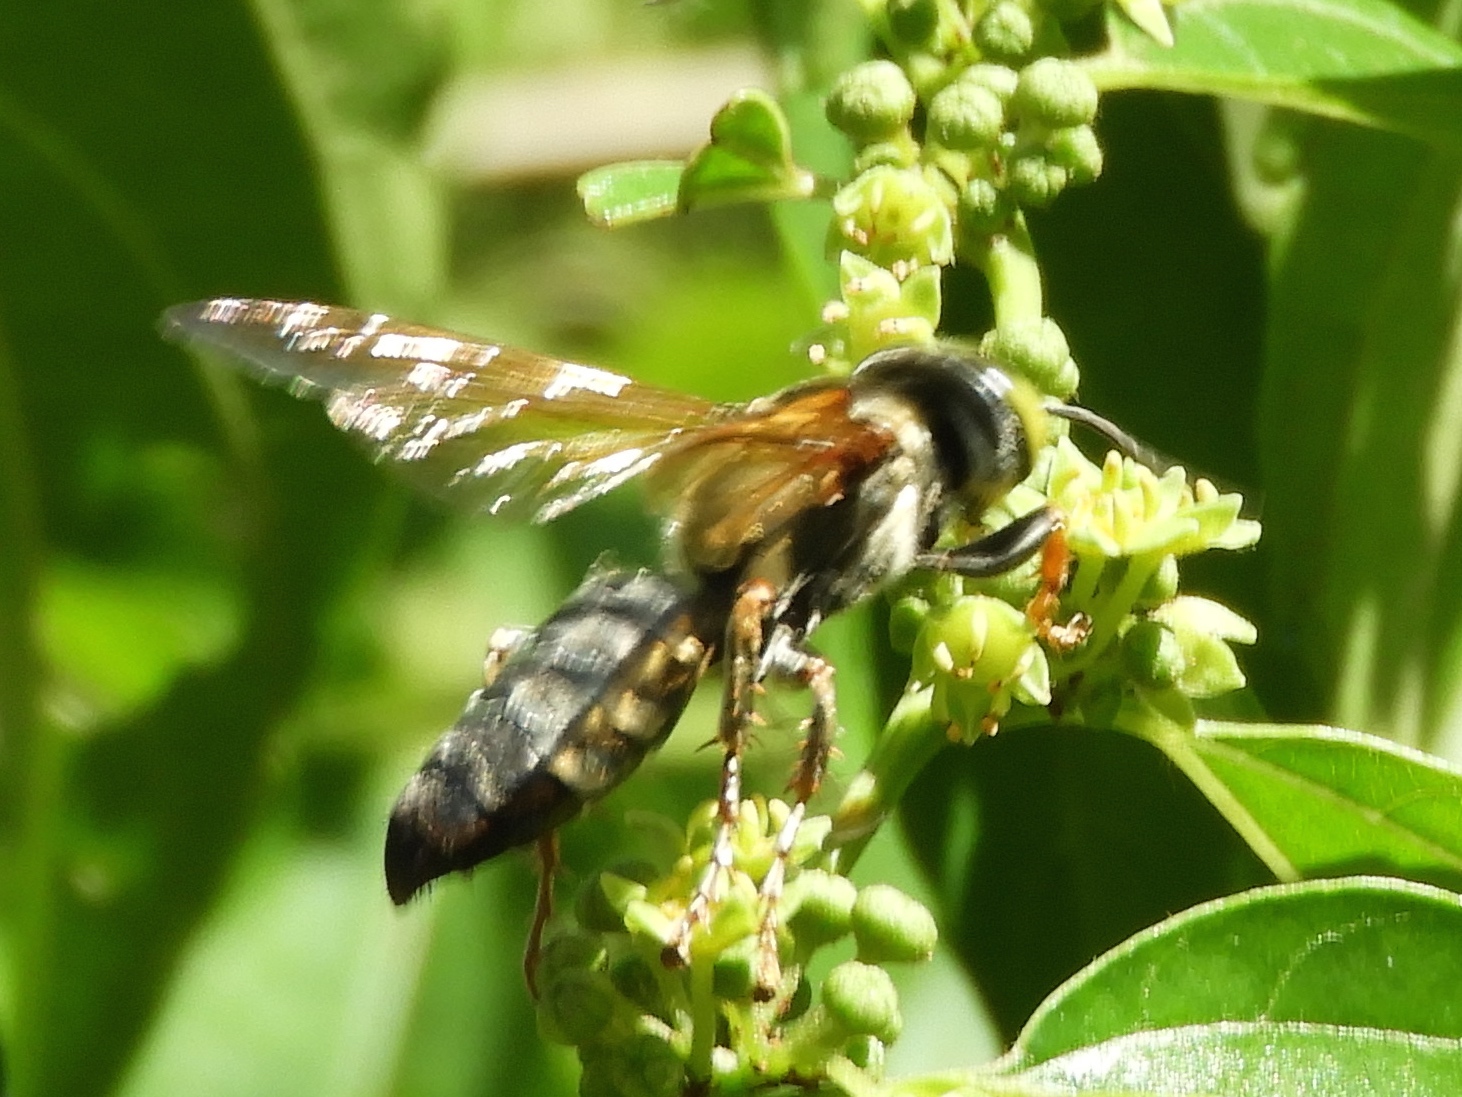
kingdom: Animalia
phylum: Arthropoda
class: Insecta
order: Hymenoptera
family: Crabronidae
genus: Tachytes
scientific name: Tachytes
